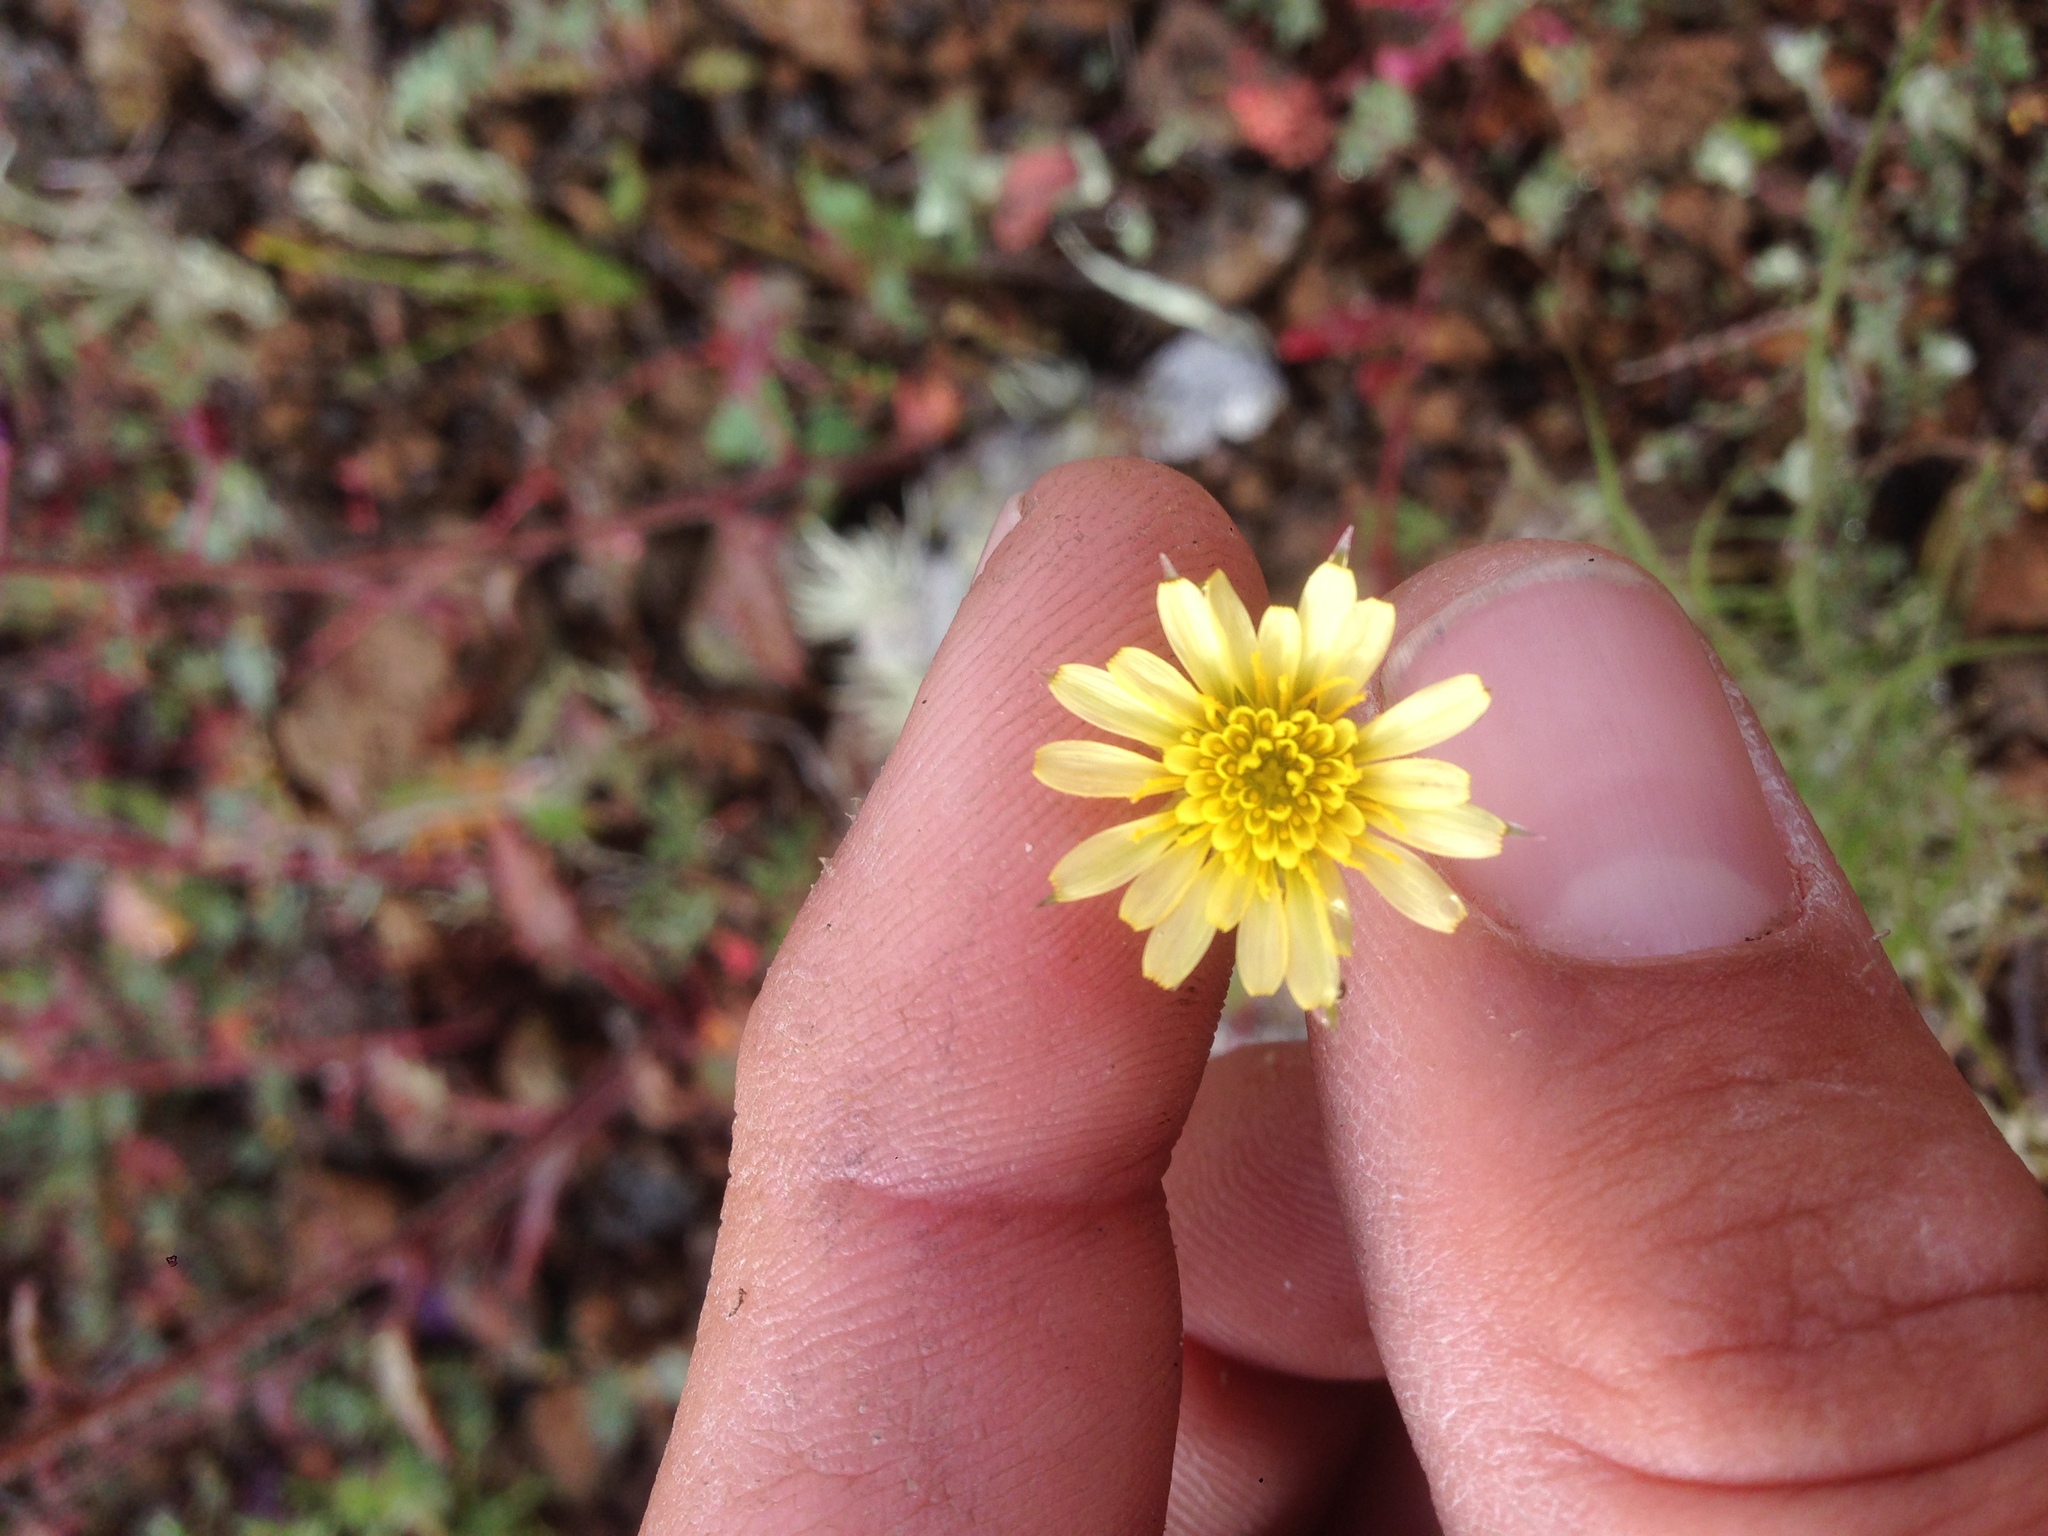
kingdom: Plantae
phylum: Tracheophyta
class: Magnoliopsida
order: Asterales
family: Asteraceae
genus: Microseris
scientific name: Microseris lindleyi
